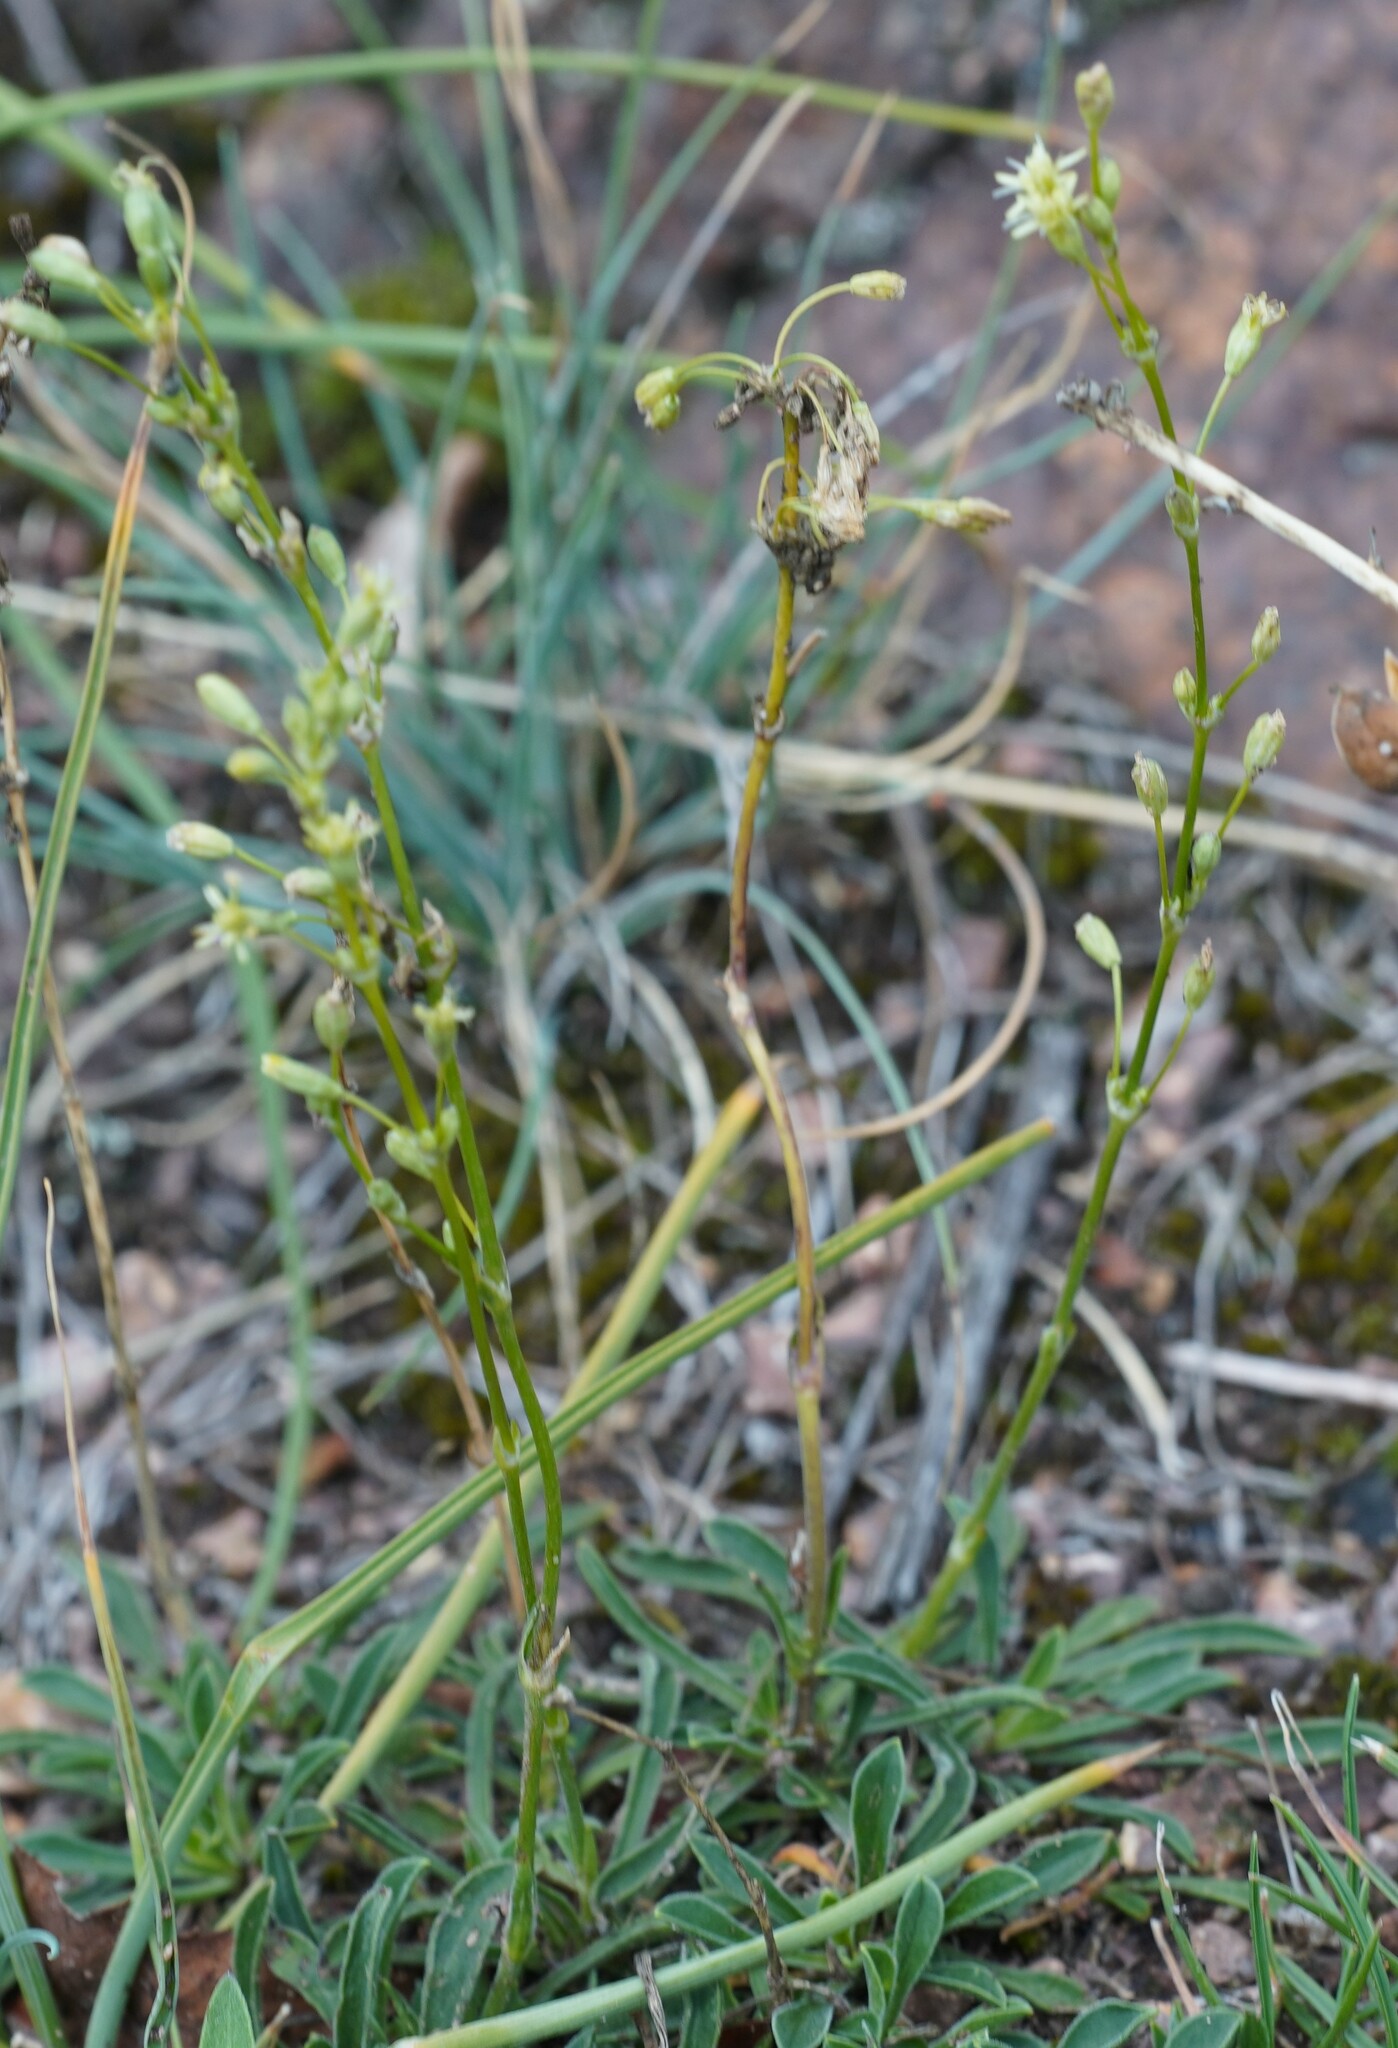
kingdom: Plantae
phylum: Tracheophyta
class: Magnoliopsida
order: Caryophyllales
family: Caryophyllaceae
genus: Silene
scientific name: Silene otites
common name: Spanish catchfly
